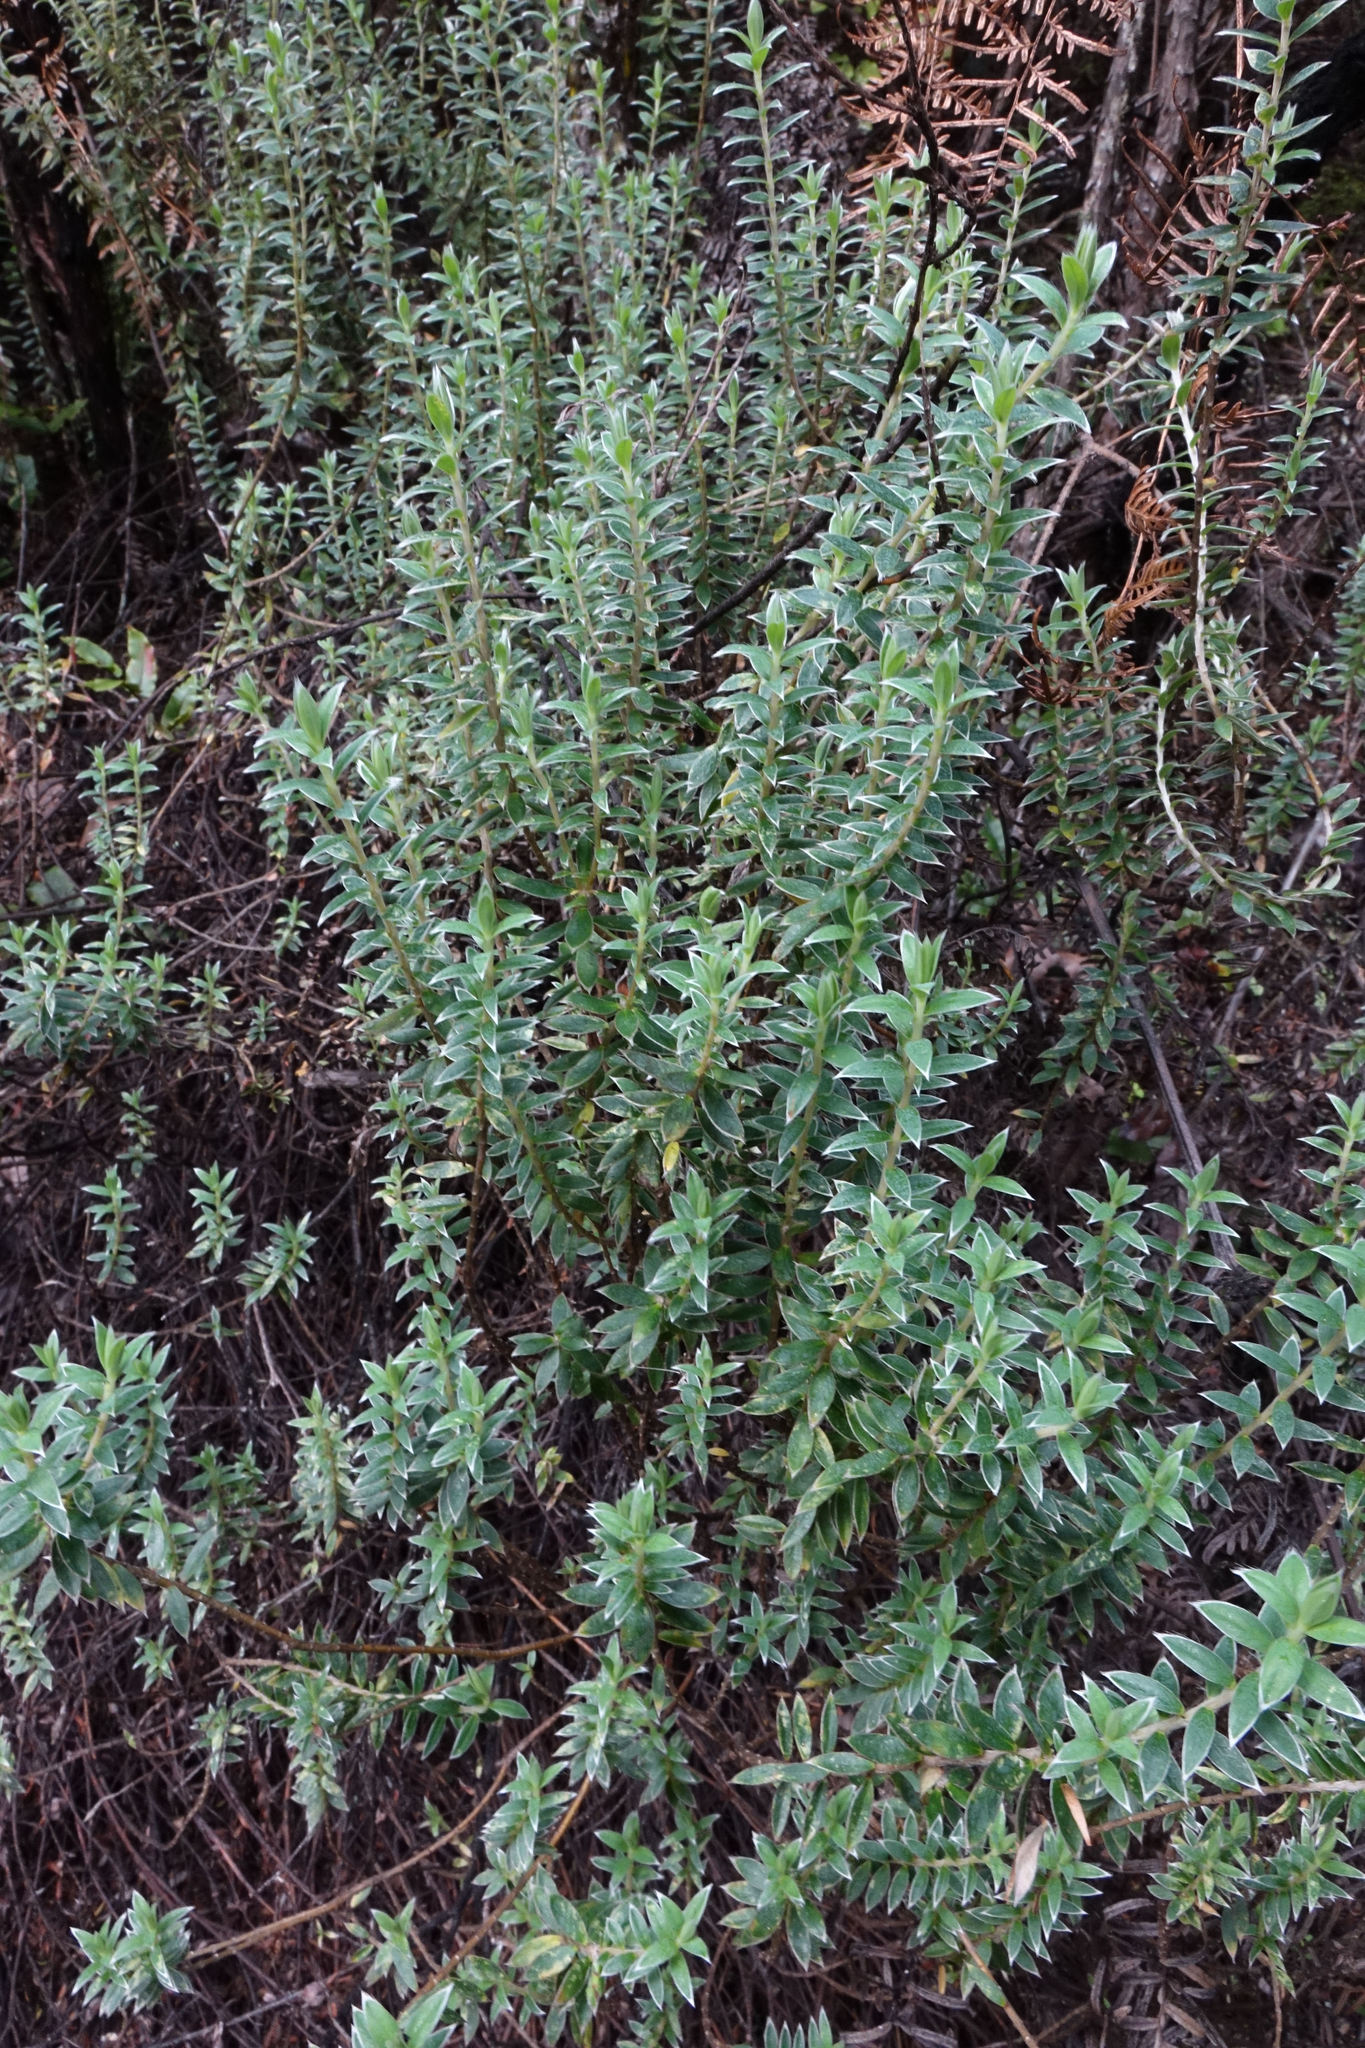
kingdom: Plantae
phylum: Tracheophyta
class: Magnoliopsida
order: Malvales
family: Thymelaeaceae
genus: Pimelea
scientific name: Pimelea pseudolyallii
